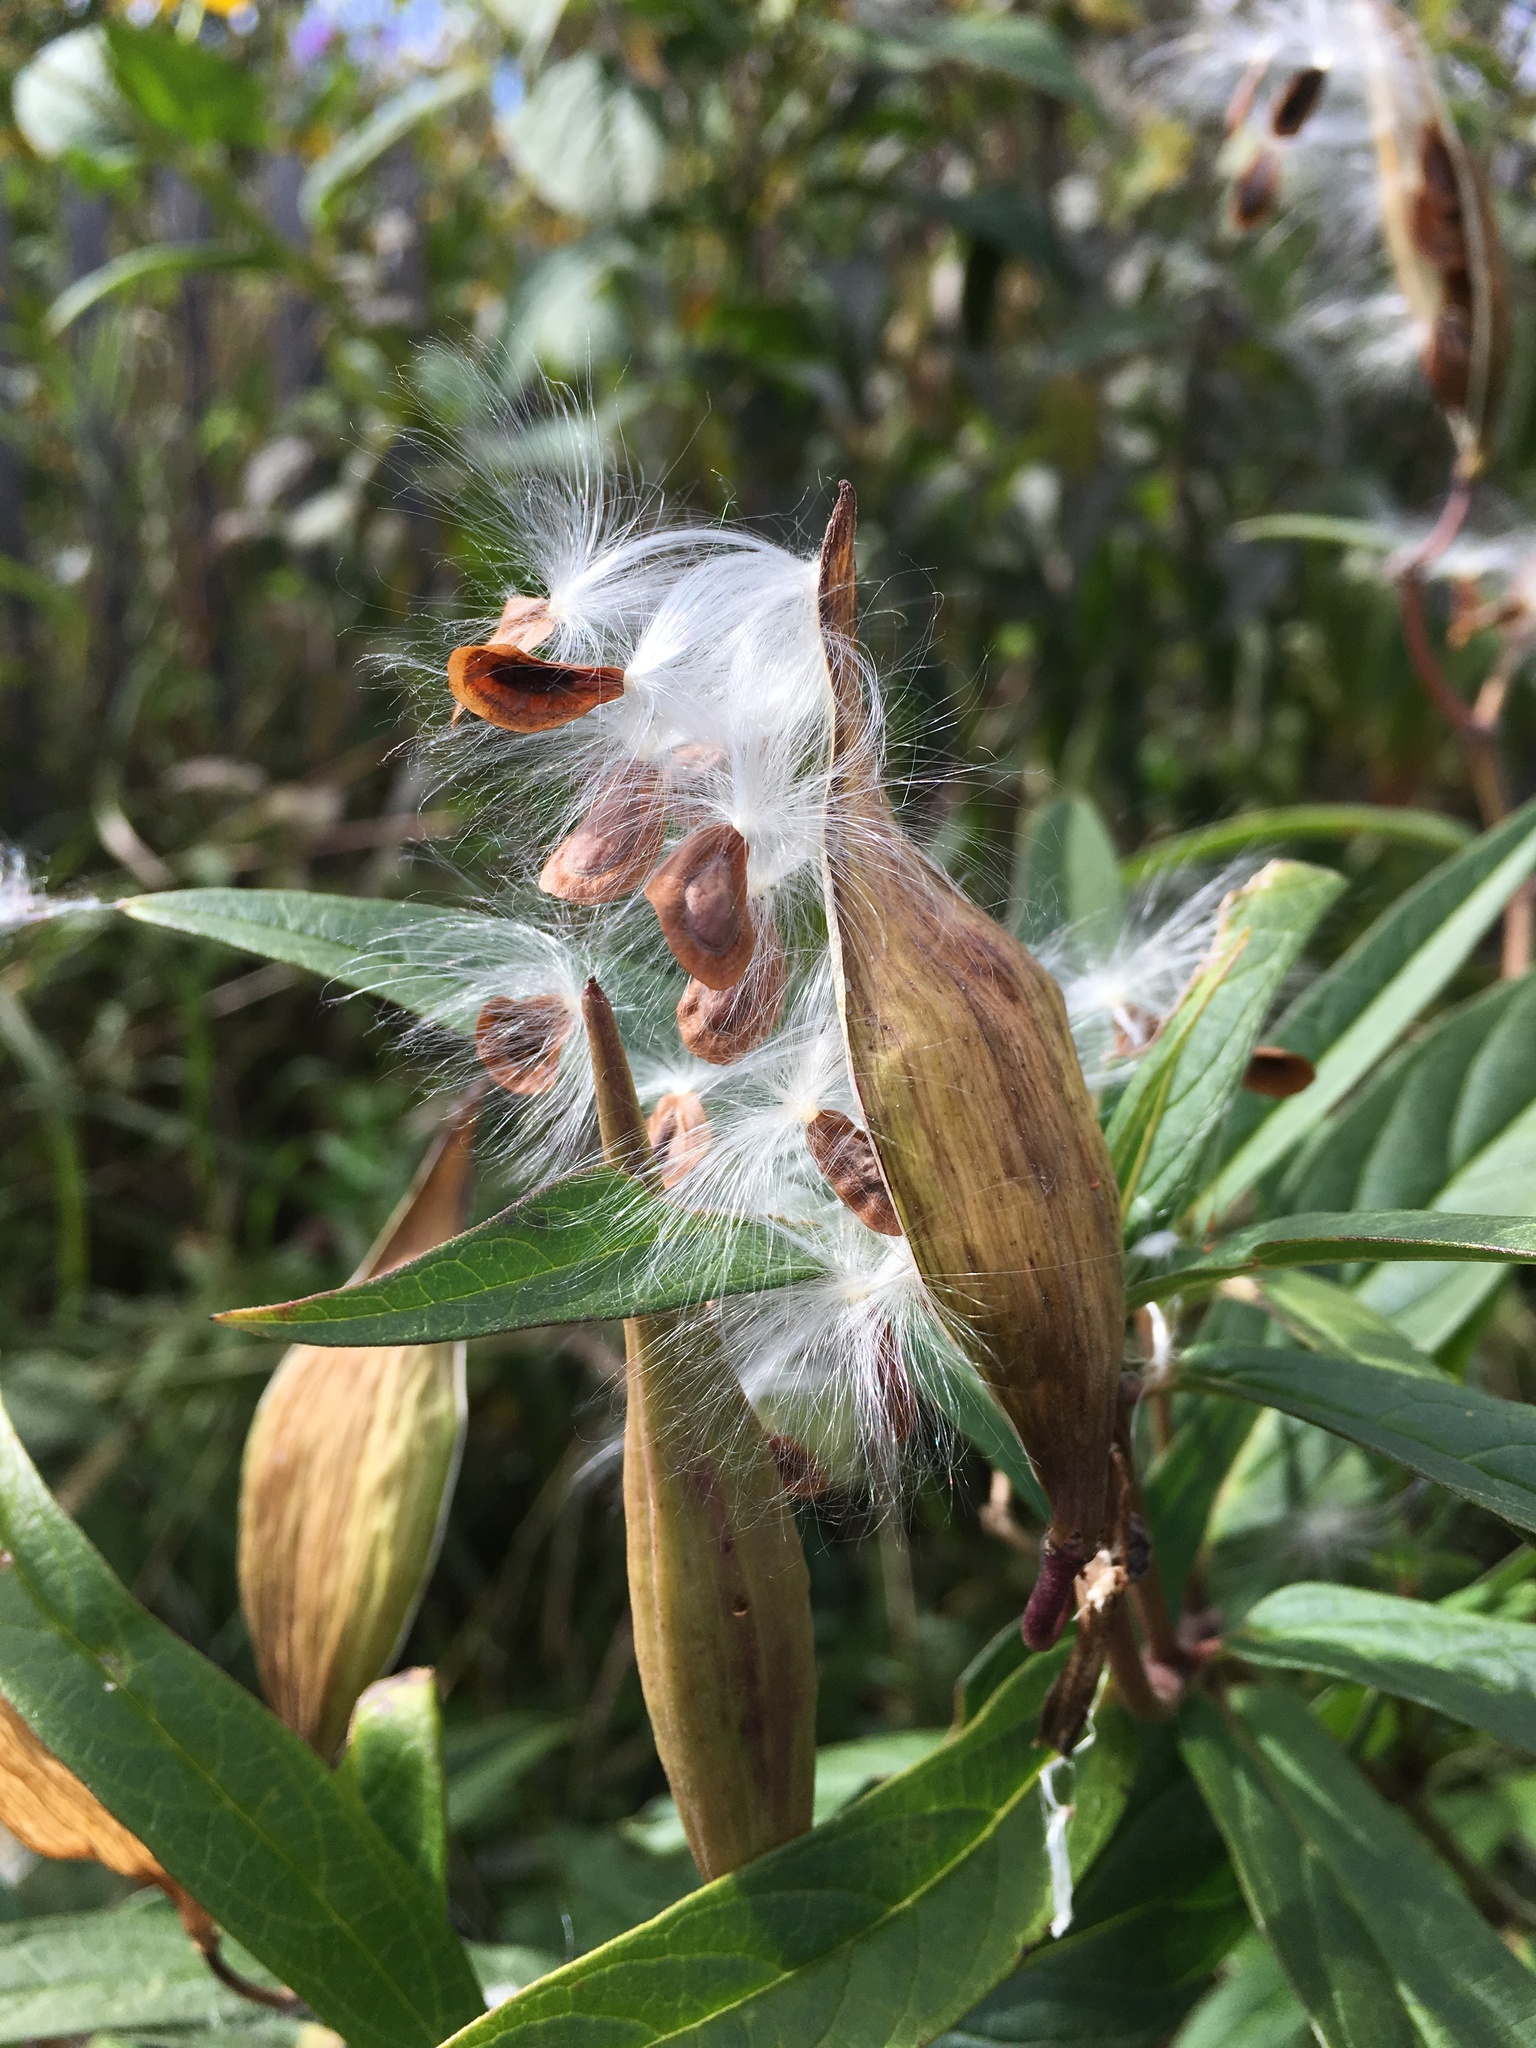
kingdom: Plantae
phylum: Tracheophyta
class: Magnoliopsida
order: Gentianales
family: Apocynaceae
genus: Asclepias
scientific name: Asclepias incarnata
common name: Swamp milkweed
